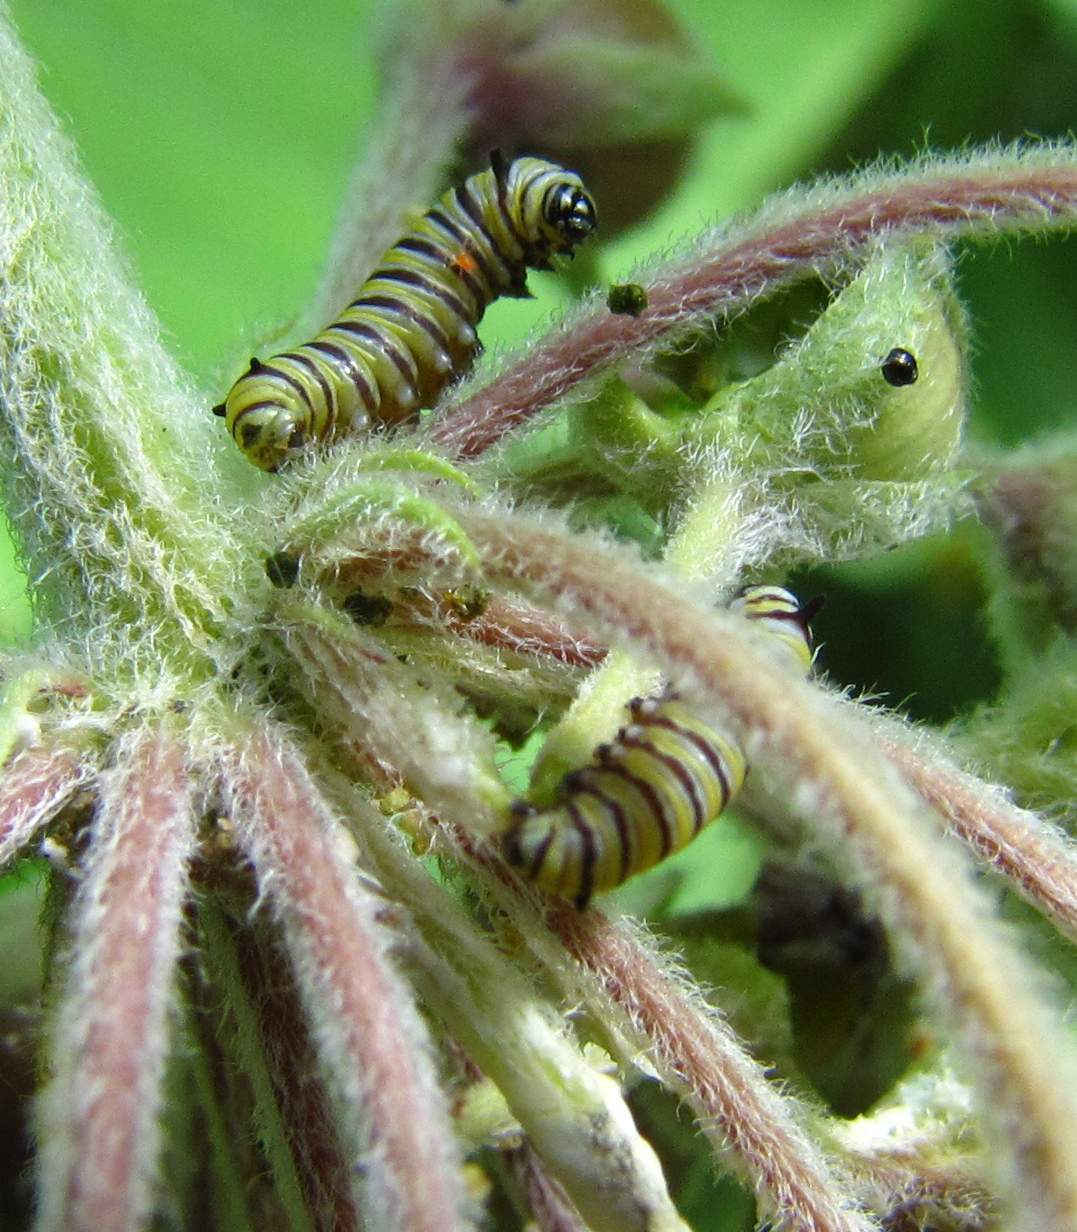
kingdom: Animalia
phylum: Arthropoda
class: Insecta
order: Lepidoptera
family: Nymphalidae
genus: Danaus
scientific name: Danaus plexippus
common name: Monarch
